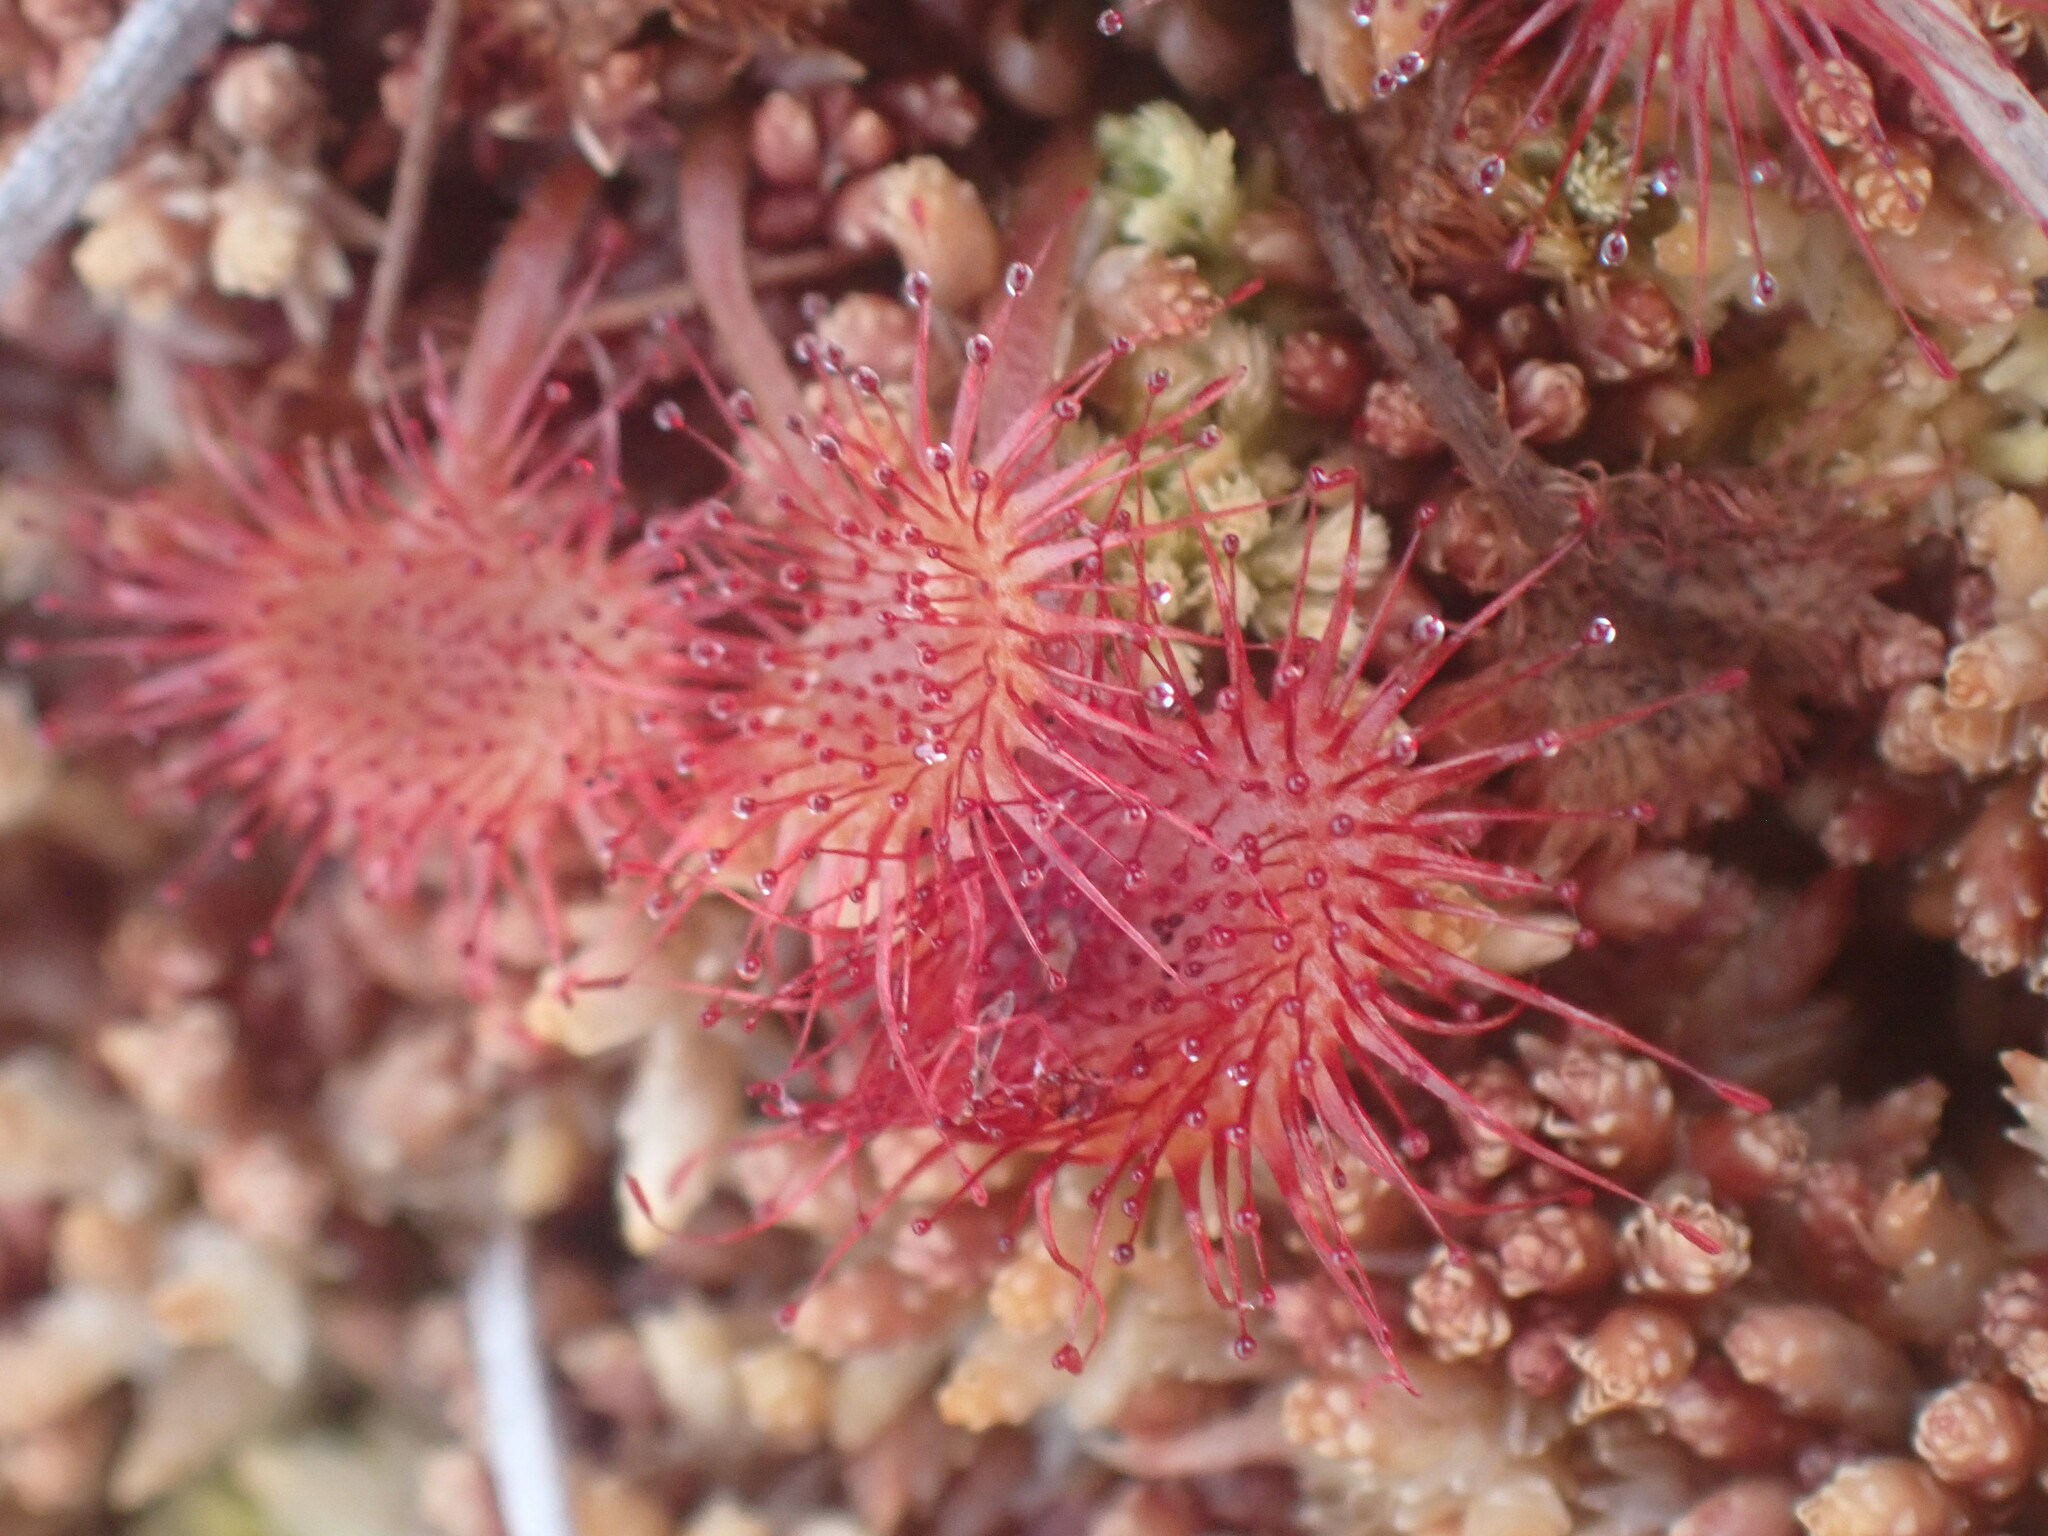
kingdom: Plantae
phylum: Tracheophyta
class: Magnoliopsida
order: Caryophyllales
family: Droseraceae
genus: Drosera
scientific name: Drosera rotundifolia
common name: Round-leaved sundew
